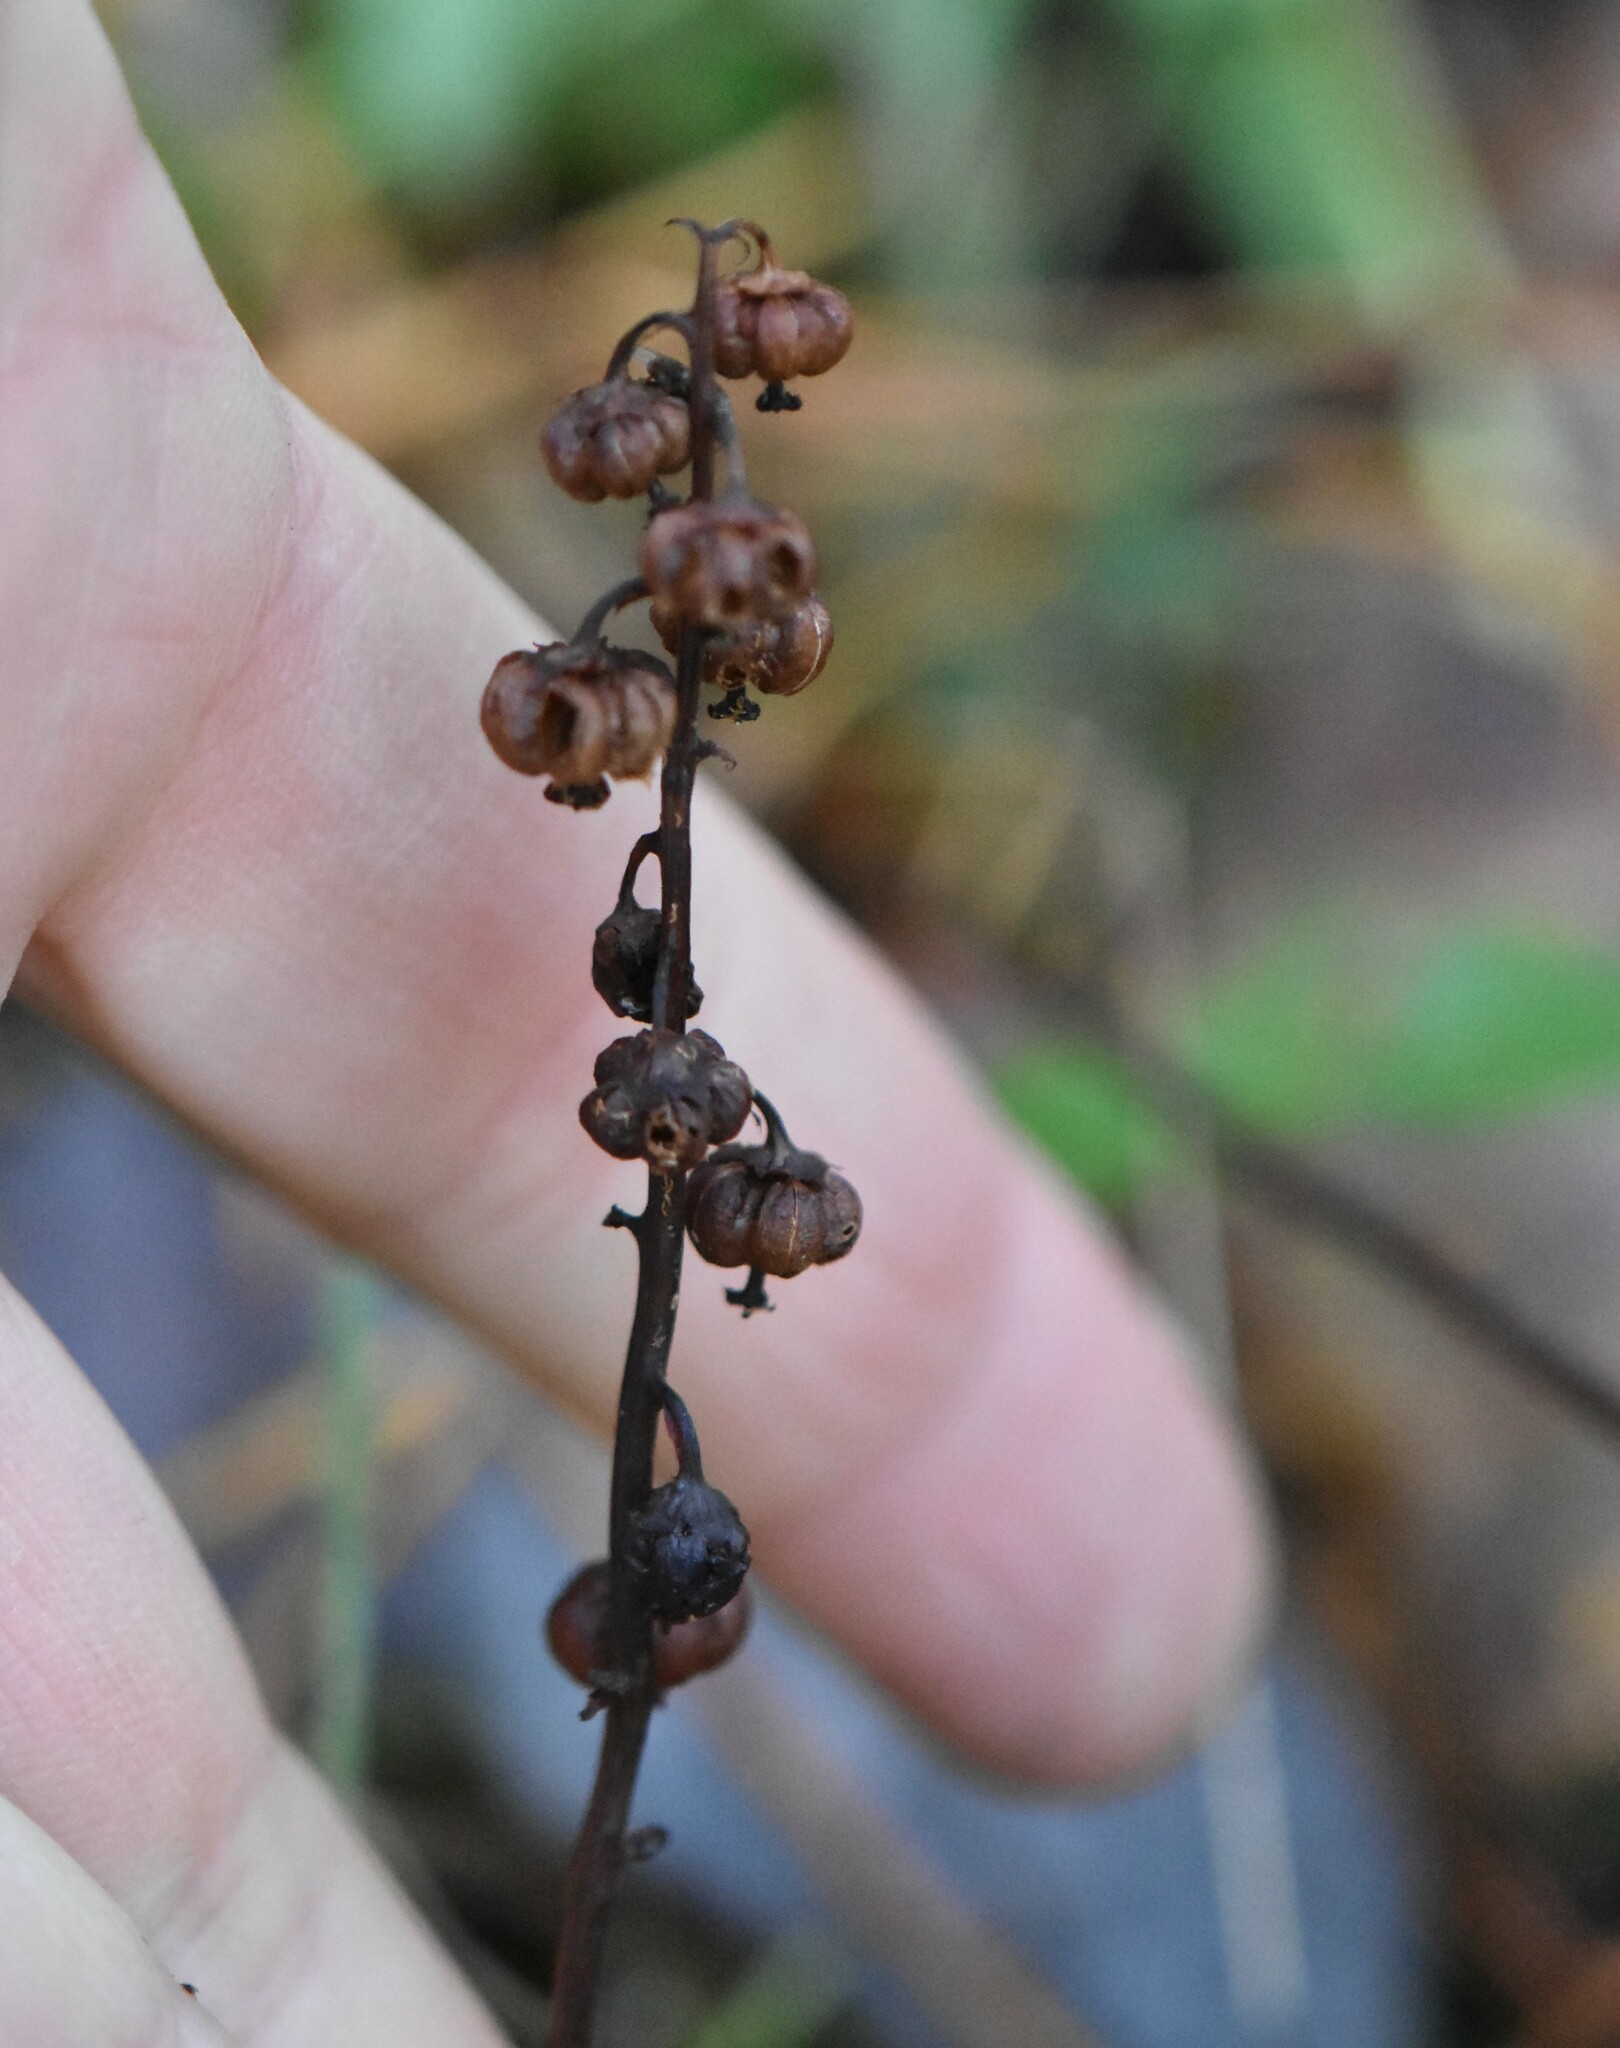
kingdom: Plantae
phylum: Tracheophyta
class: Magnoliopsida
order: Ericales
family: Ericaceae
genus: Pyrola
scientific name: Pyrola minor
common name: Common wintergreen
